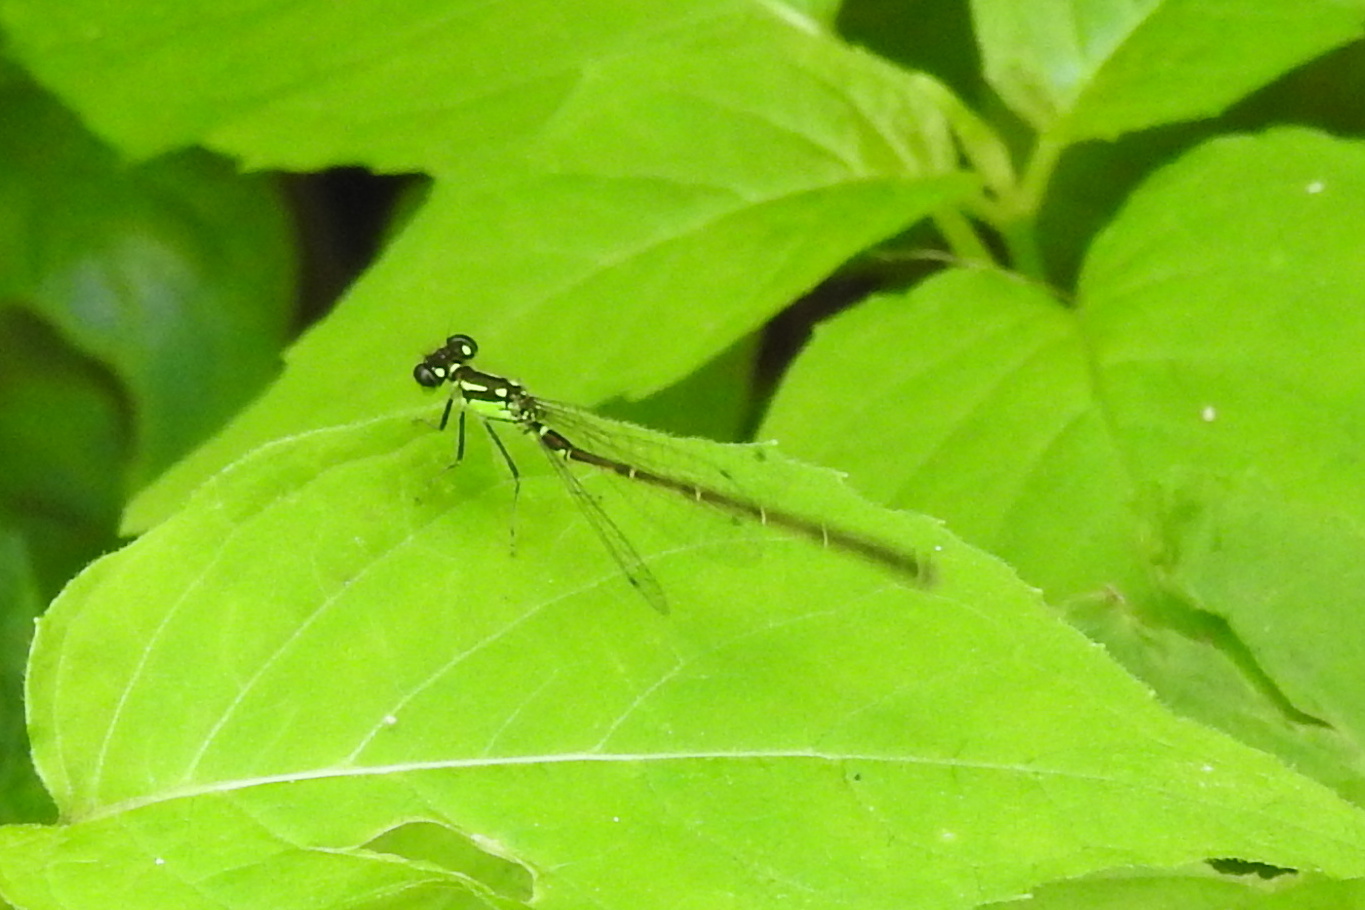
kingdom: Animalia
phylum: Arthropoda
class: Insecta
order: Odonata
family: Coenagrionidae
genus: Ischnura
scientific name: Ischnura posita
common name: Fragile forktail
